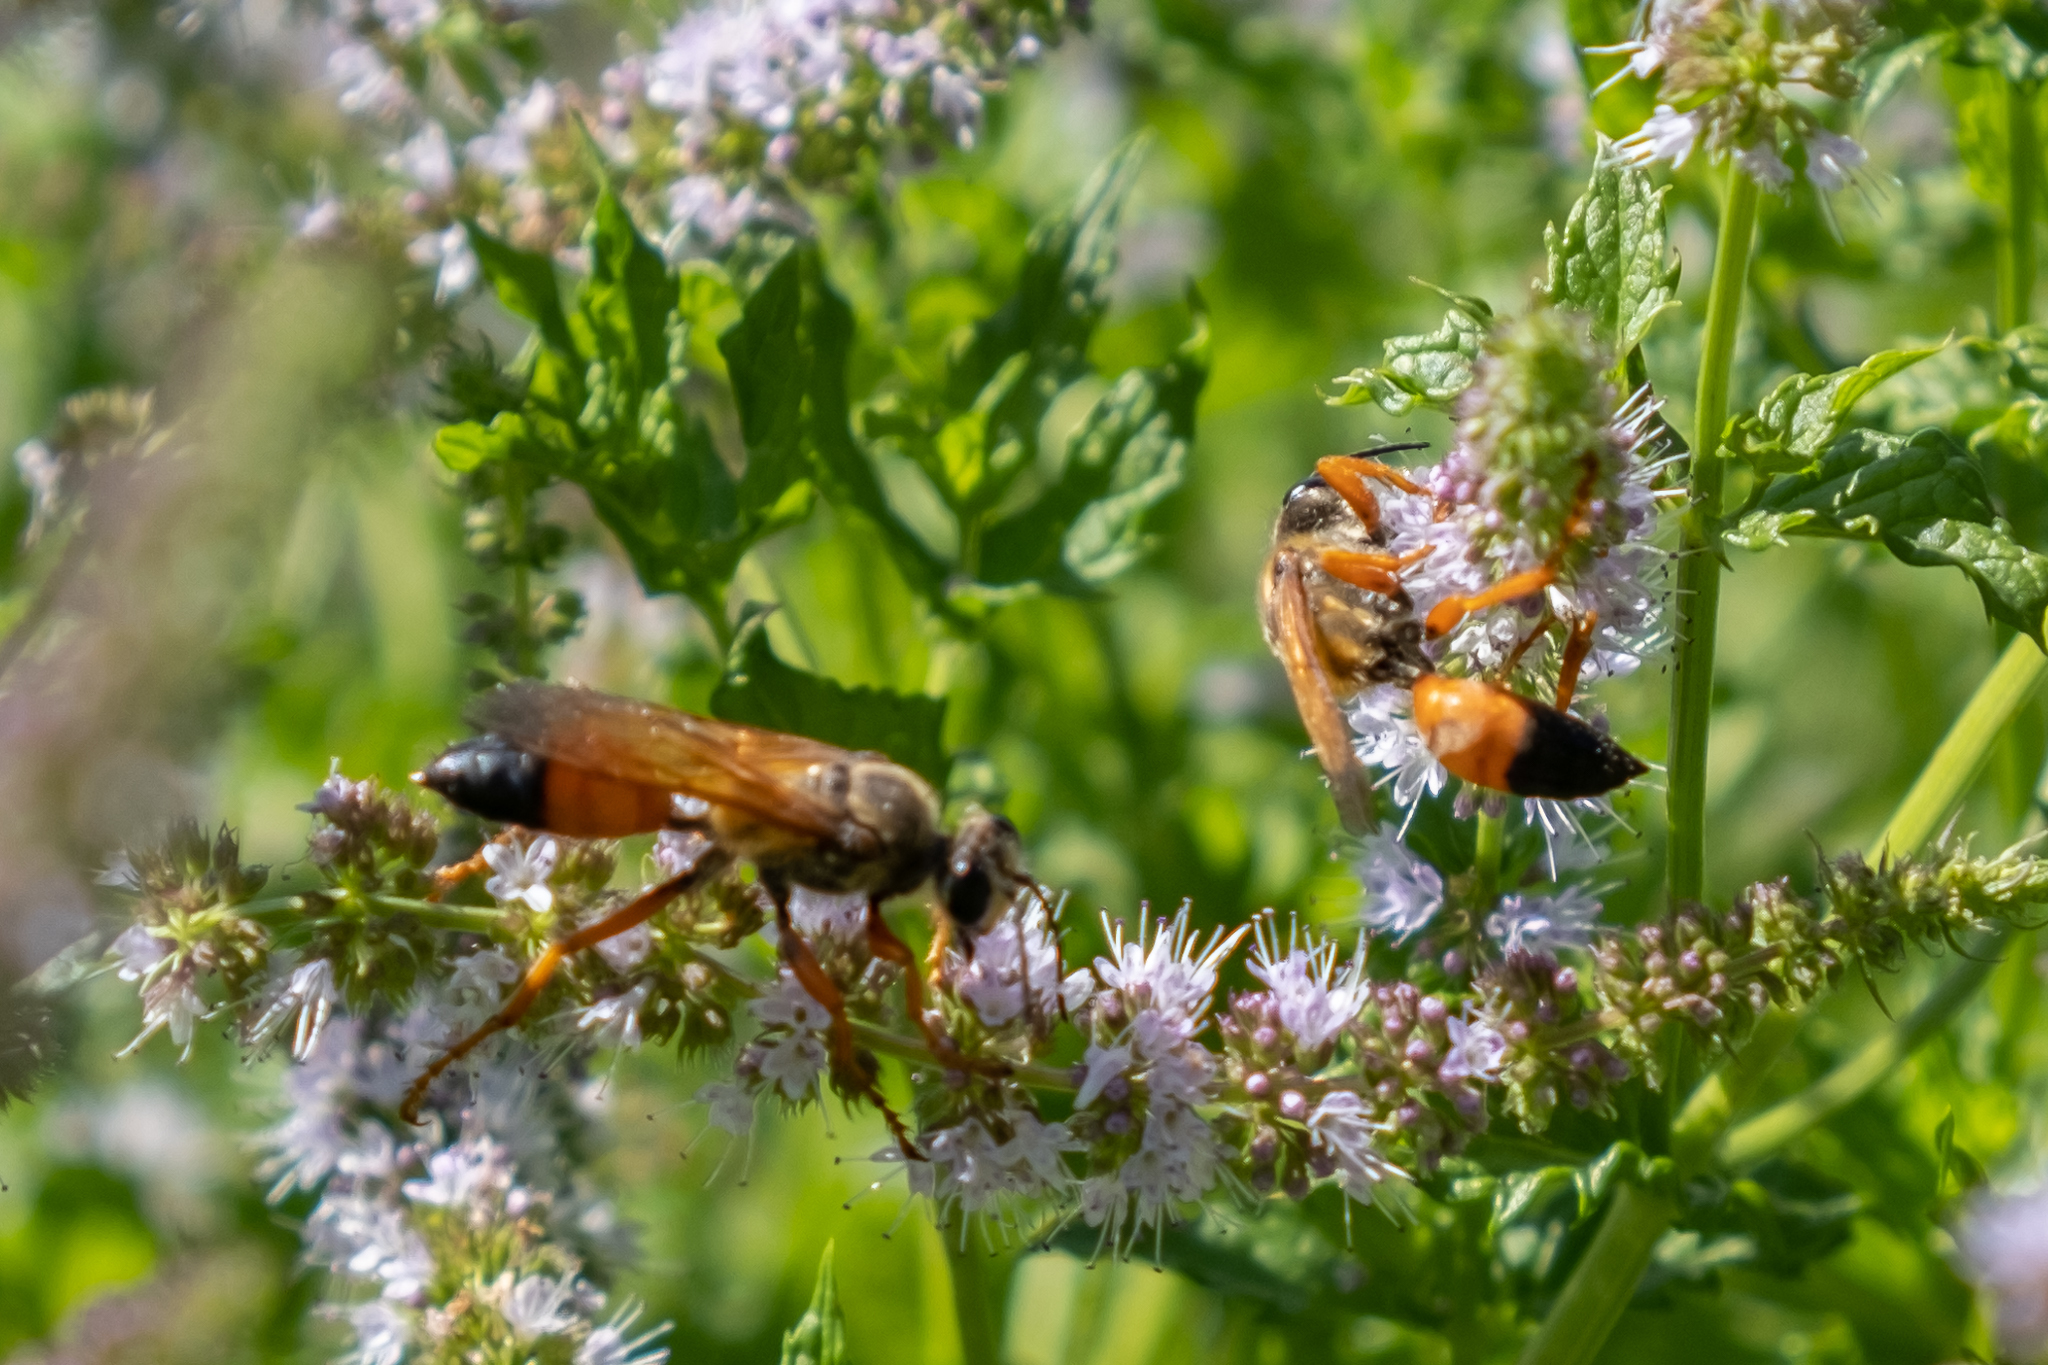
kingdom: Animalia
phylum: Arthropoda
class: Insecta
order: Hymenoptera
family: Sphecidae
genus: Sphex
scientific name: Sphex ichneumoneus
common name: Great golden digger wasp
